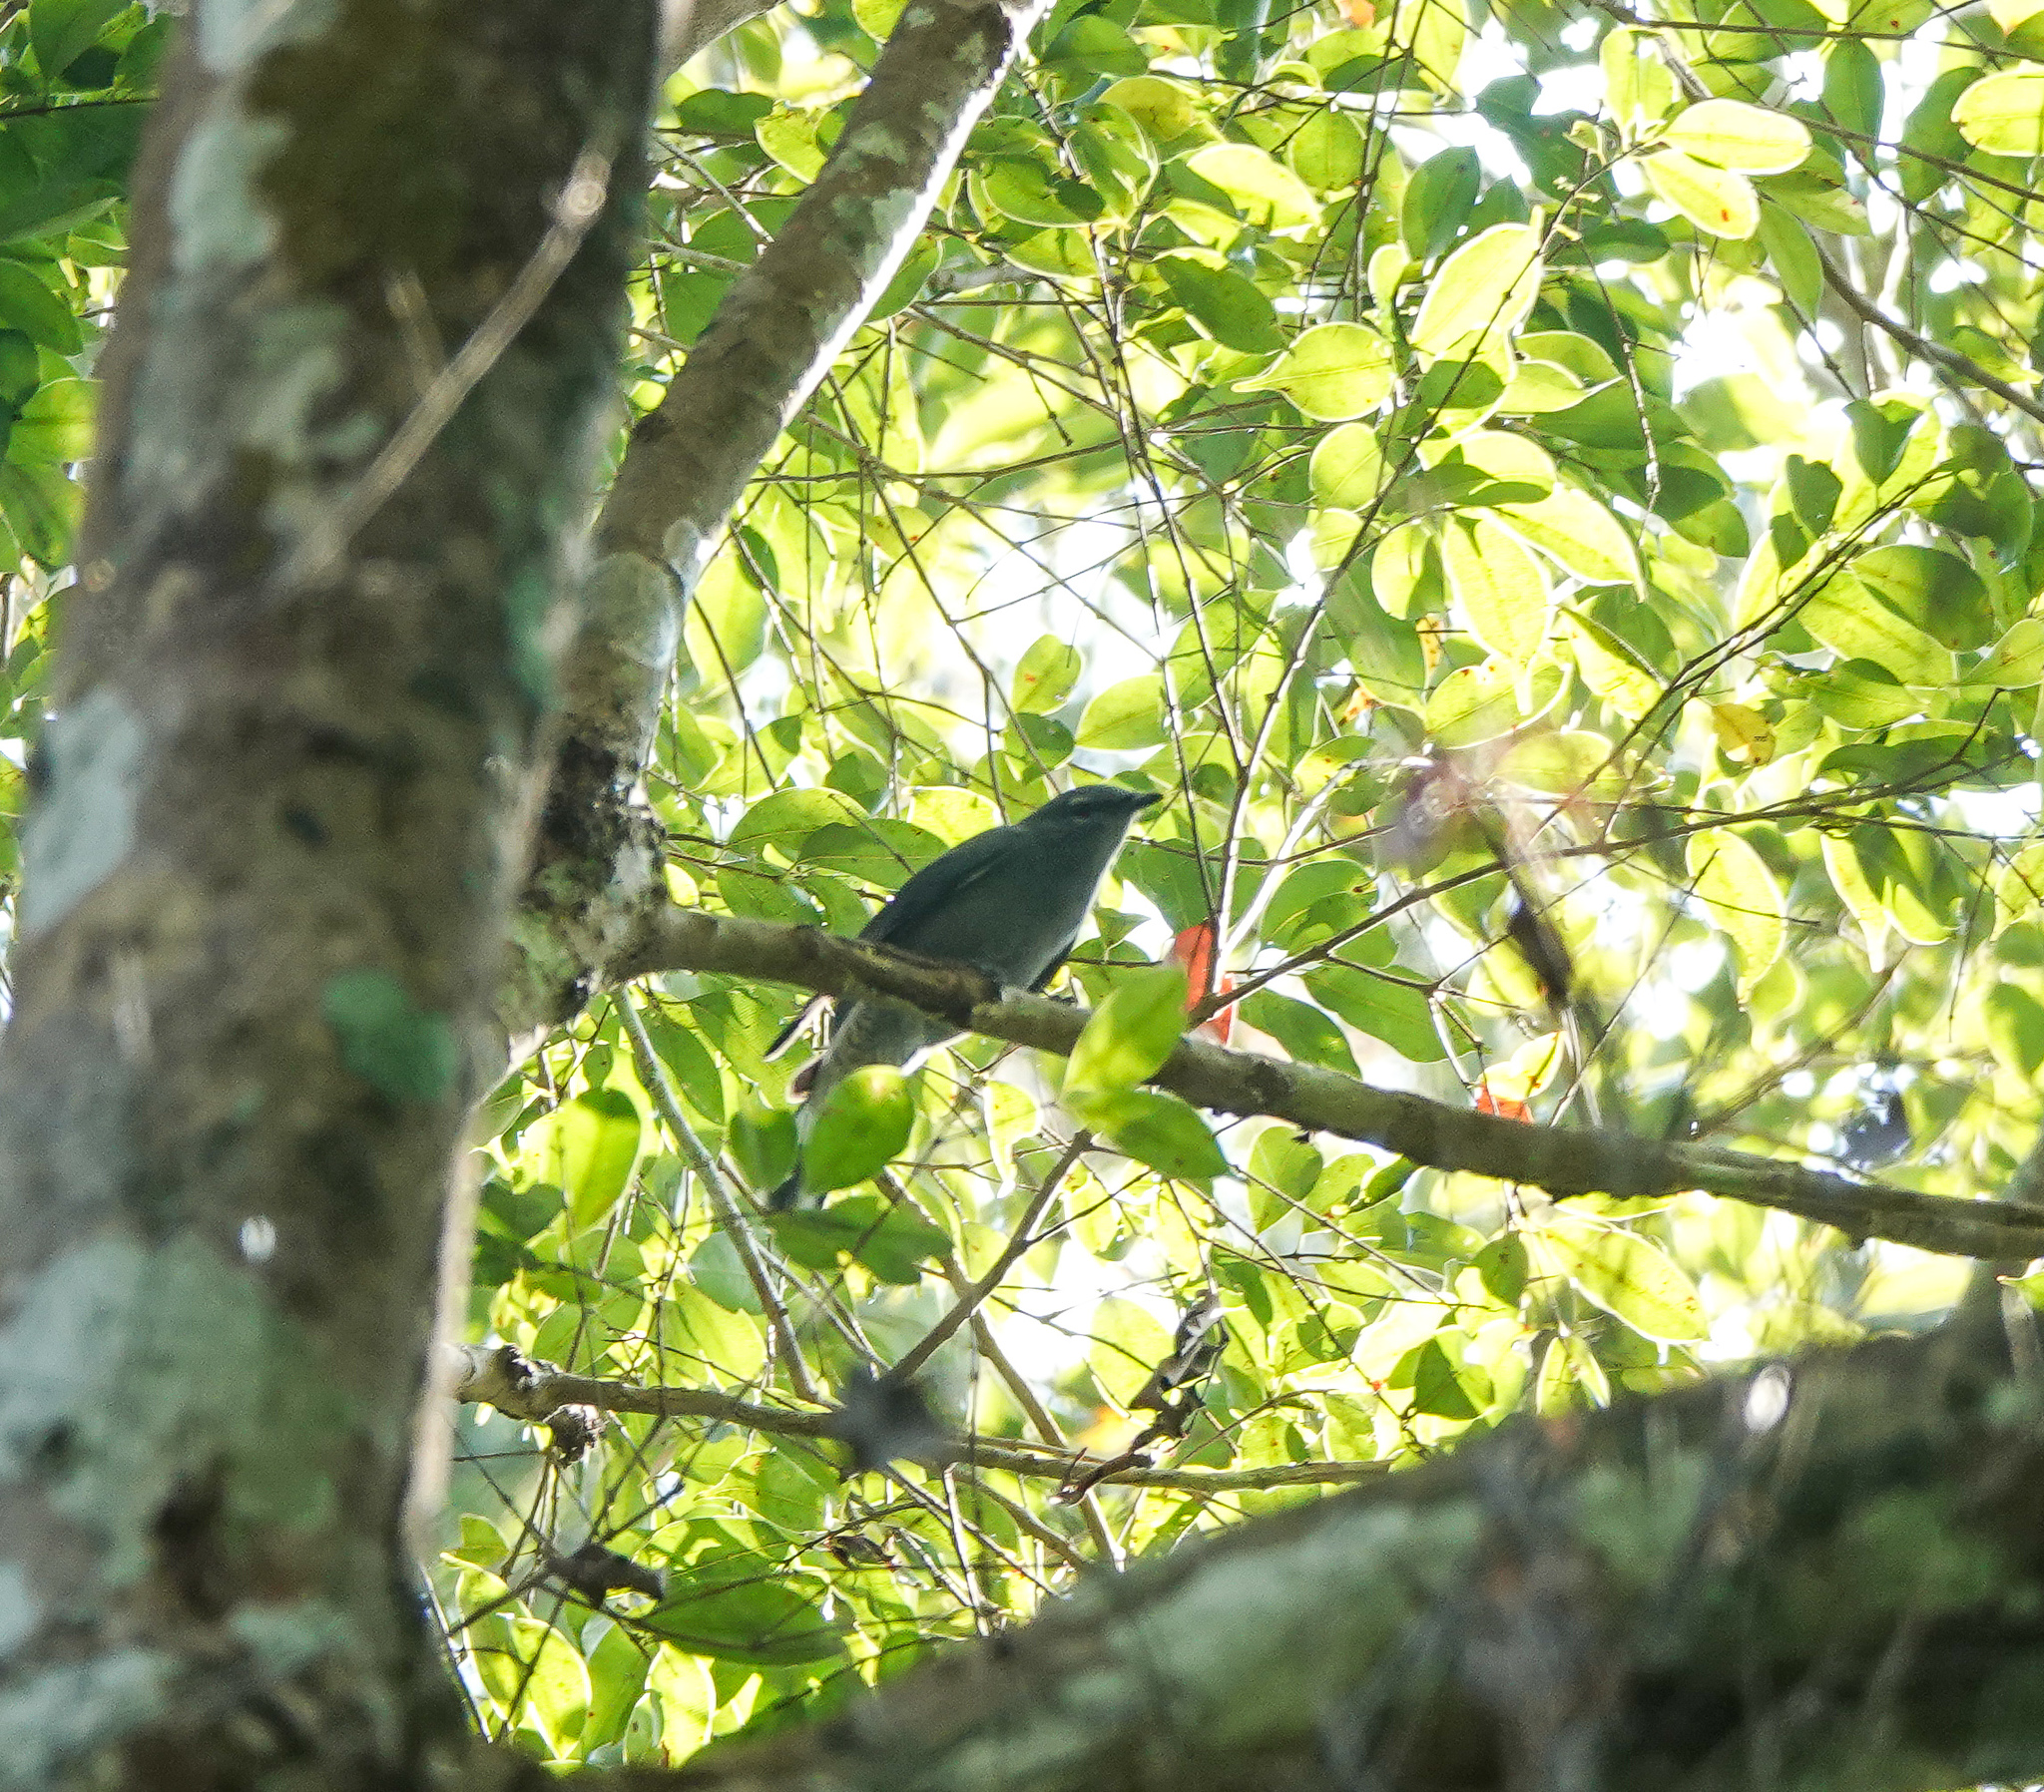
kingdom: Animalia
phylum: Chordata
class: Aves
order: Passeriformes
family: Campephagidae
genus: Coracina
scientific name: Coracina melaschistos
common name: Black-winged cuckooshrike
